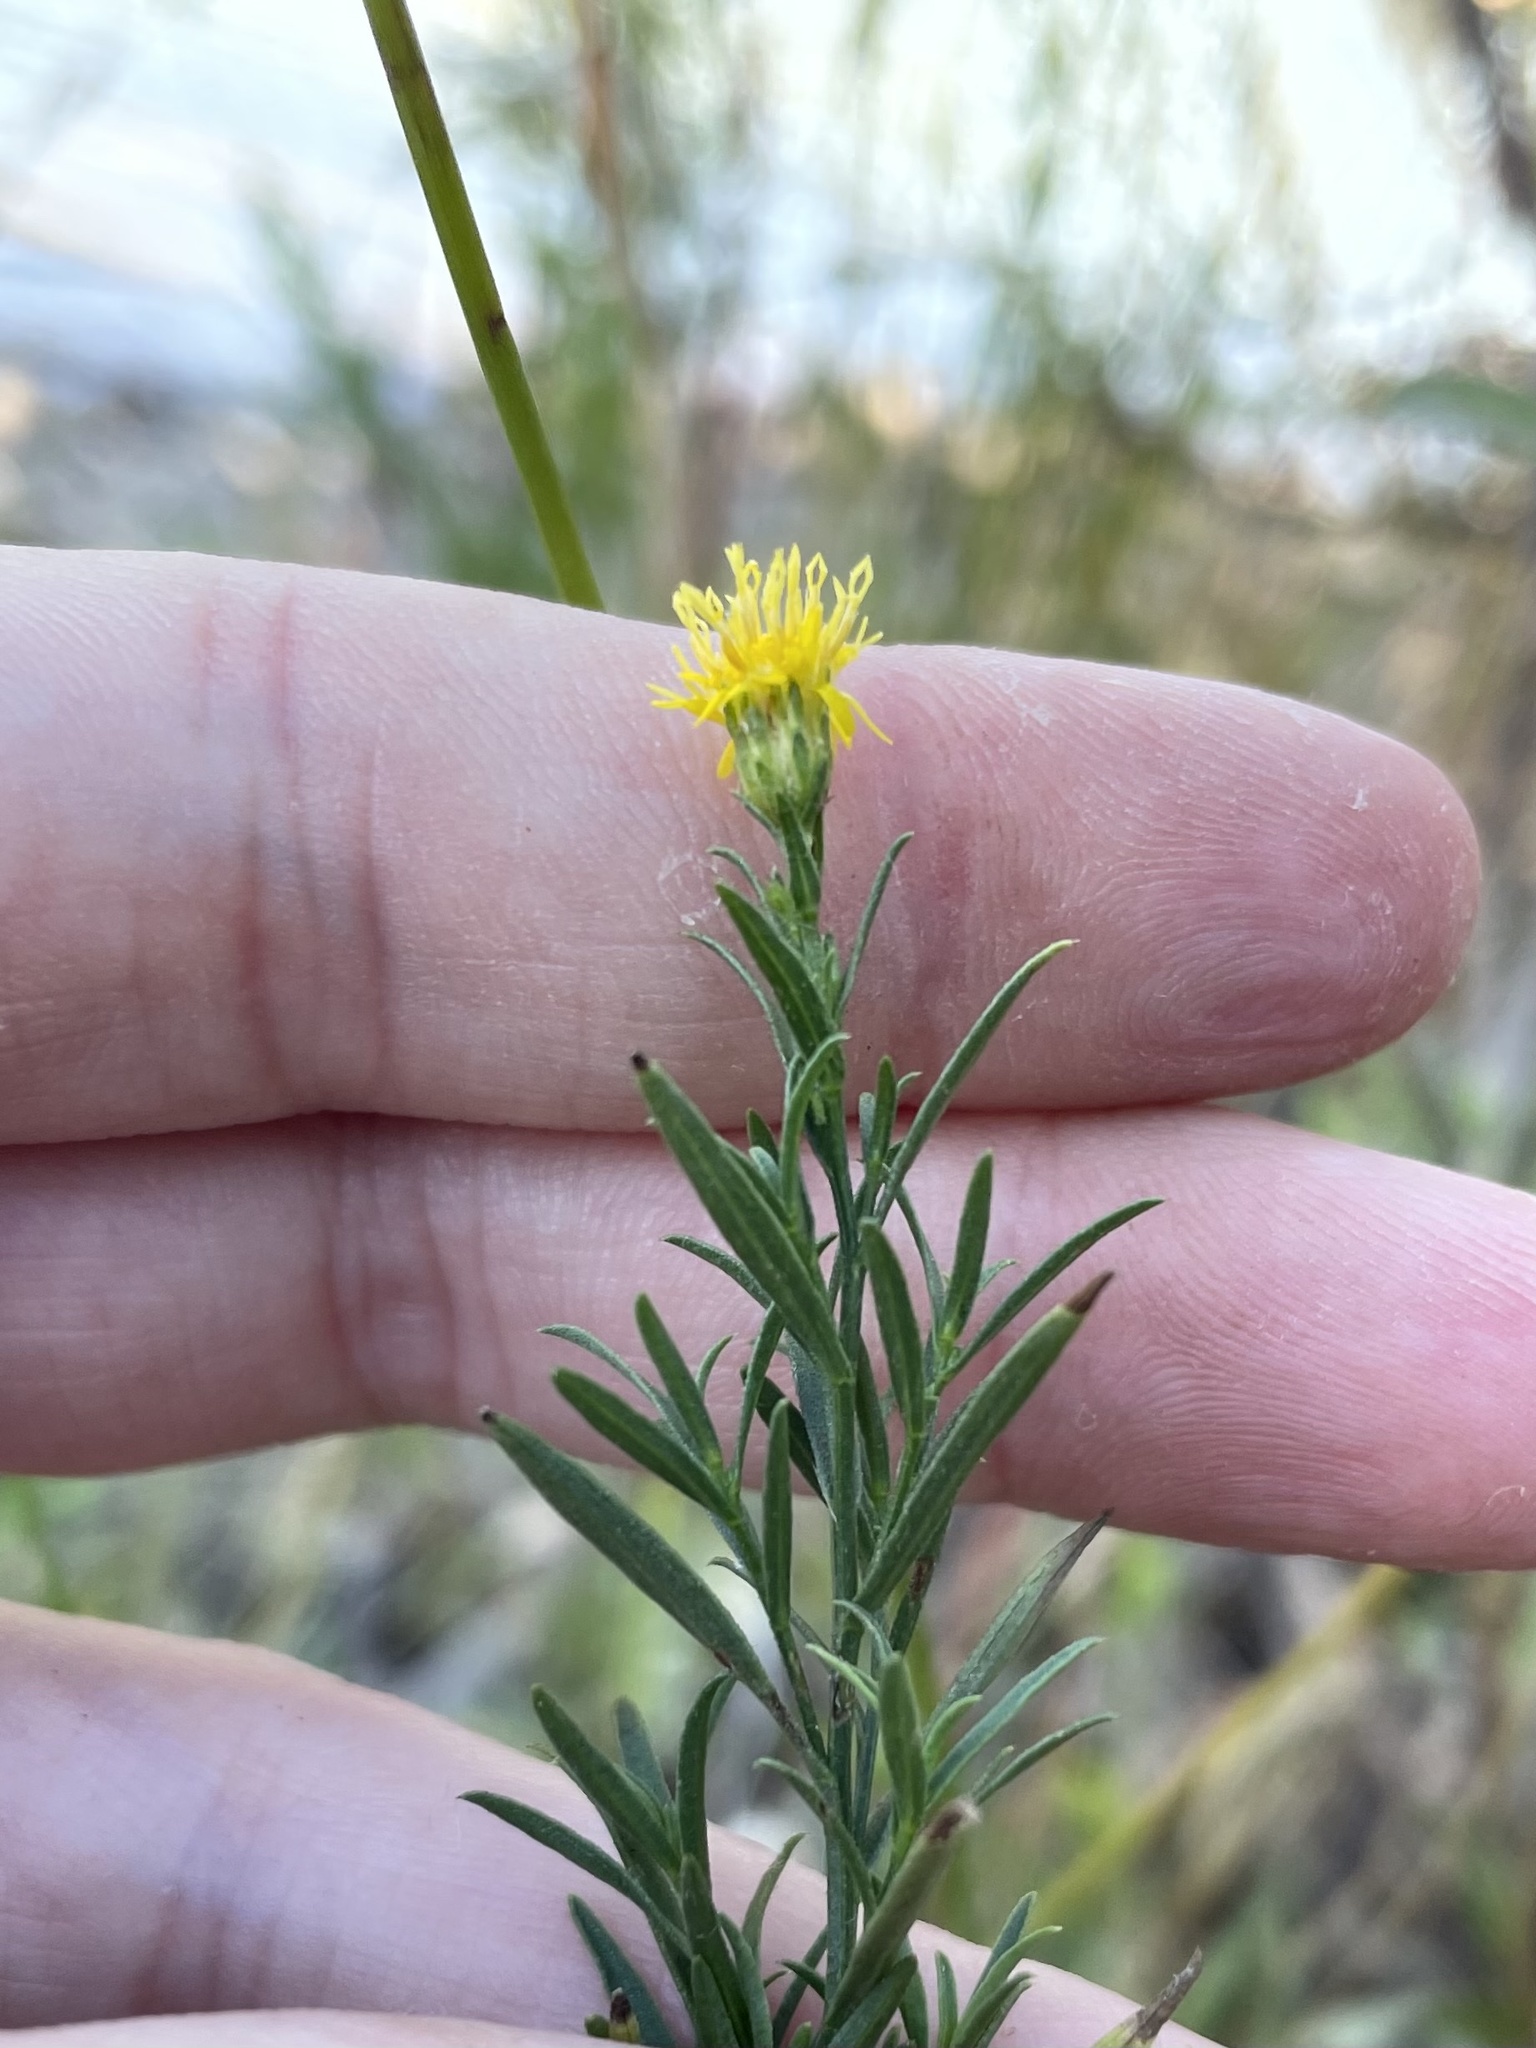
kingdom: Plantae
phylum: Tracheophyta
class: Magnoliopsida
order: Asterales
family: Asteraceae
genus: Euthamia
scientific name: Euthamia occidentalis
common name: Western goldentop
